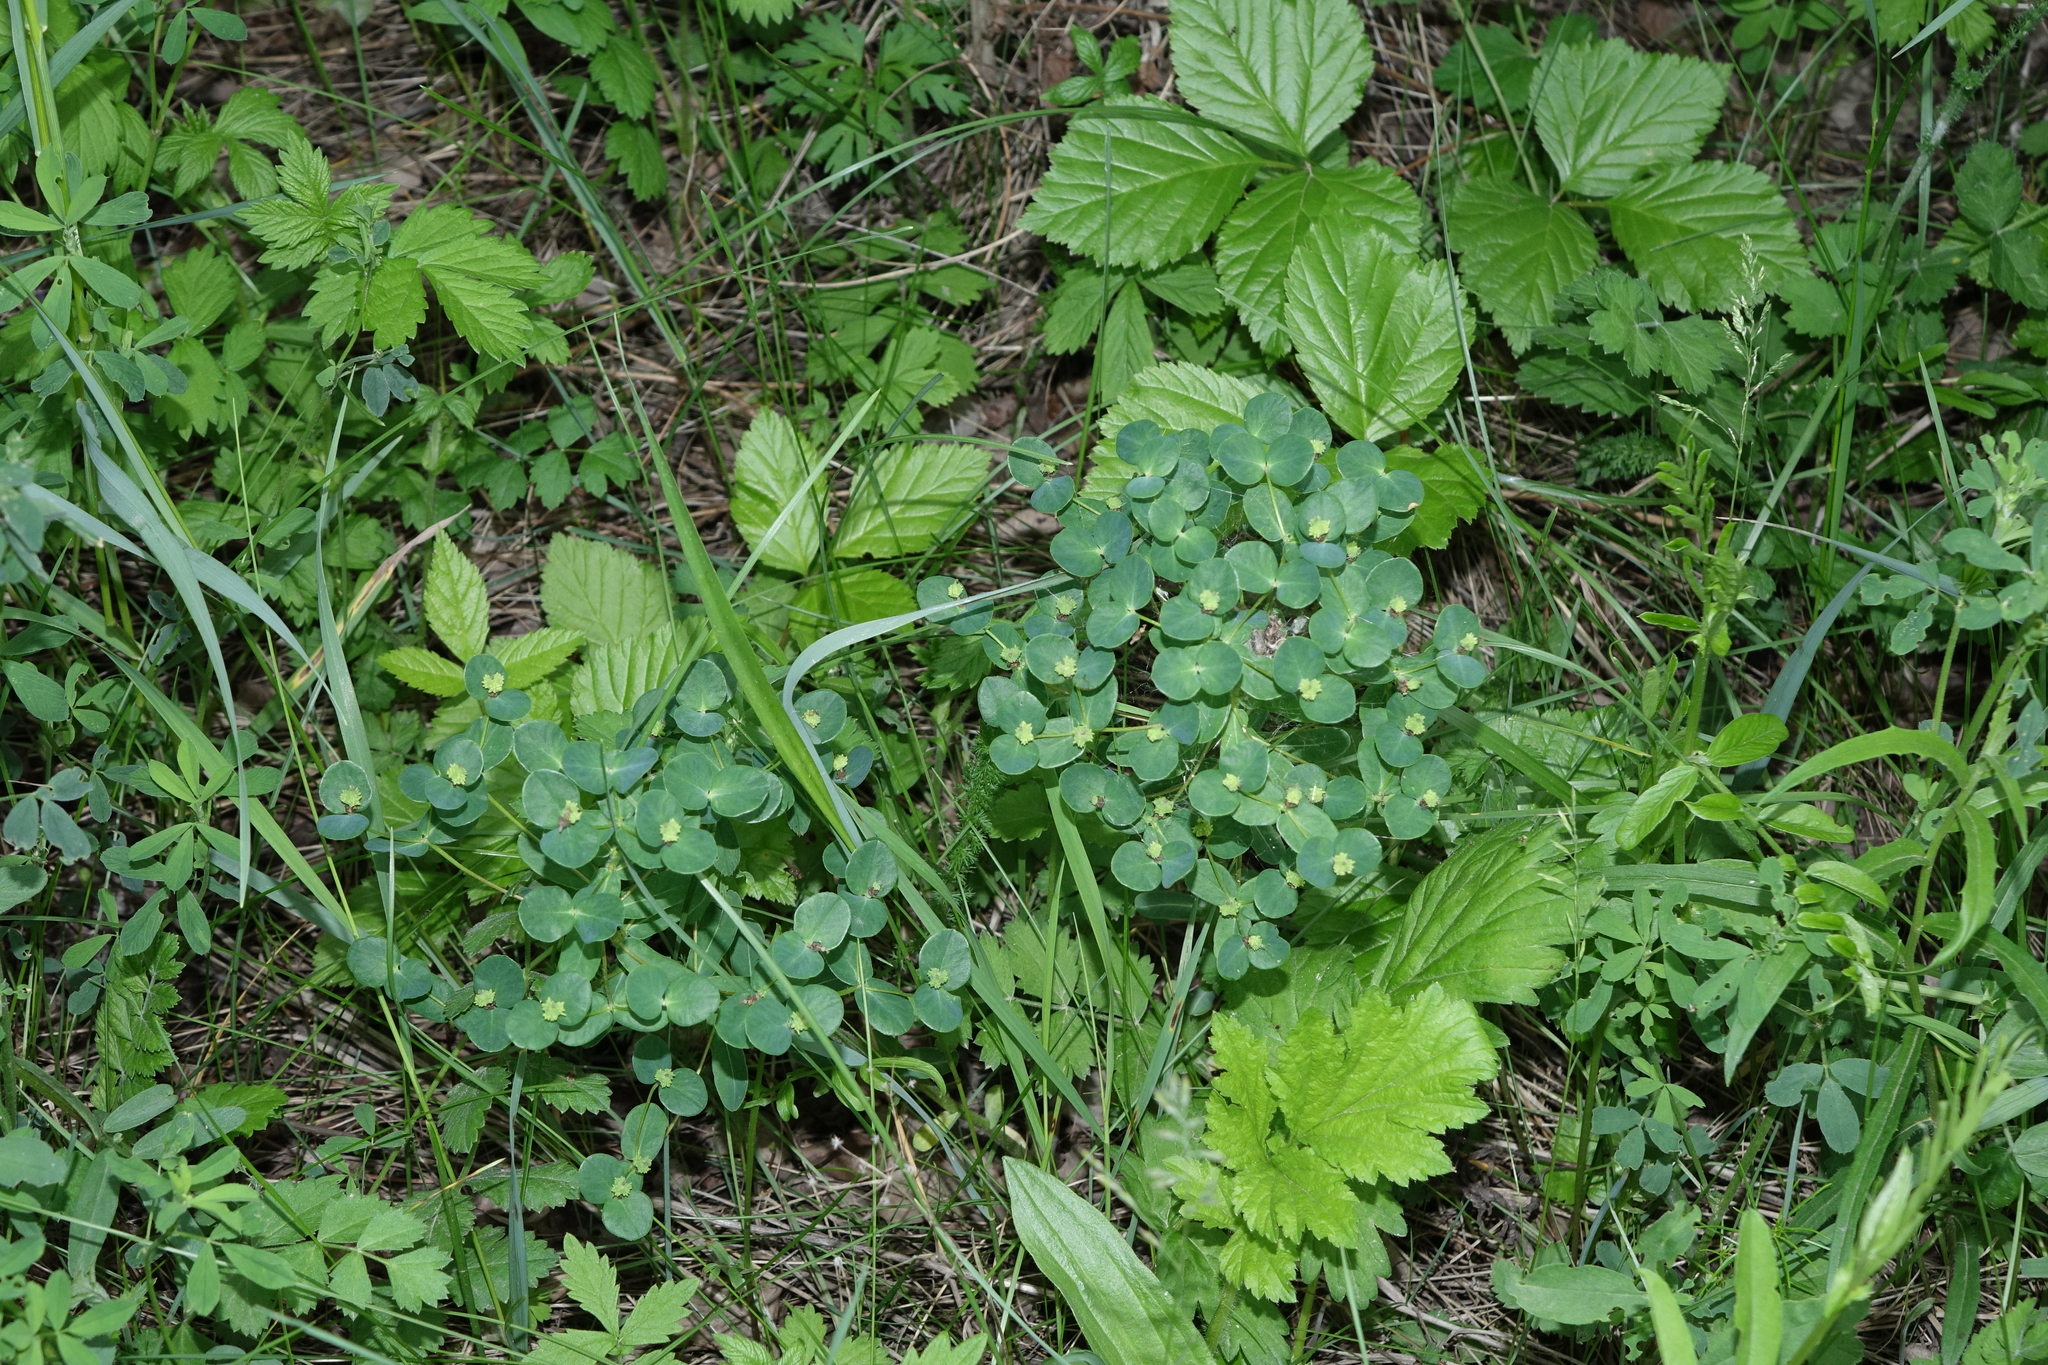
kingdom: Plantae
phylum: Tracheophyta
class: Magnoliopsida
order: Malpighiales
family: Euphorbiaceae
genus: Euphorbia
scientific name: Euphorbia jenisseiensis
